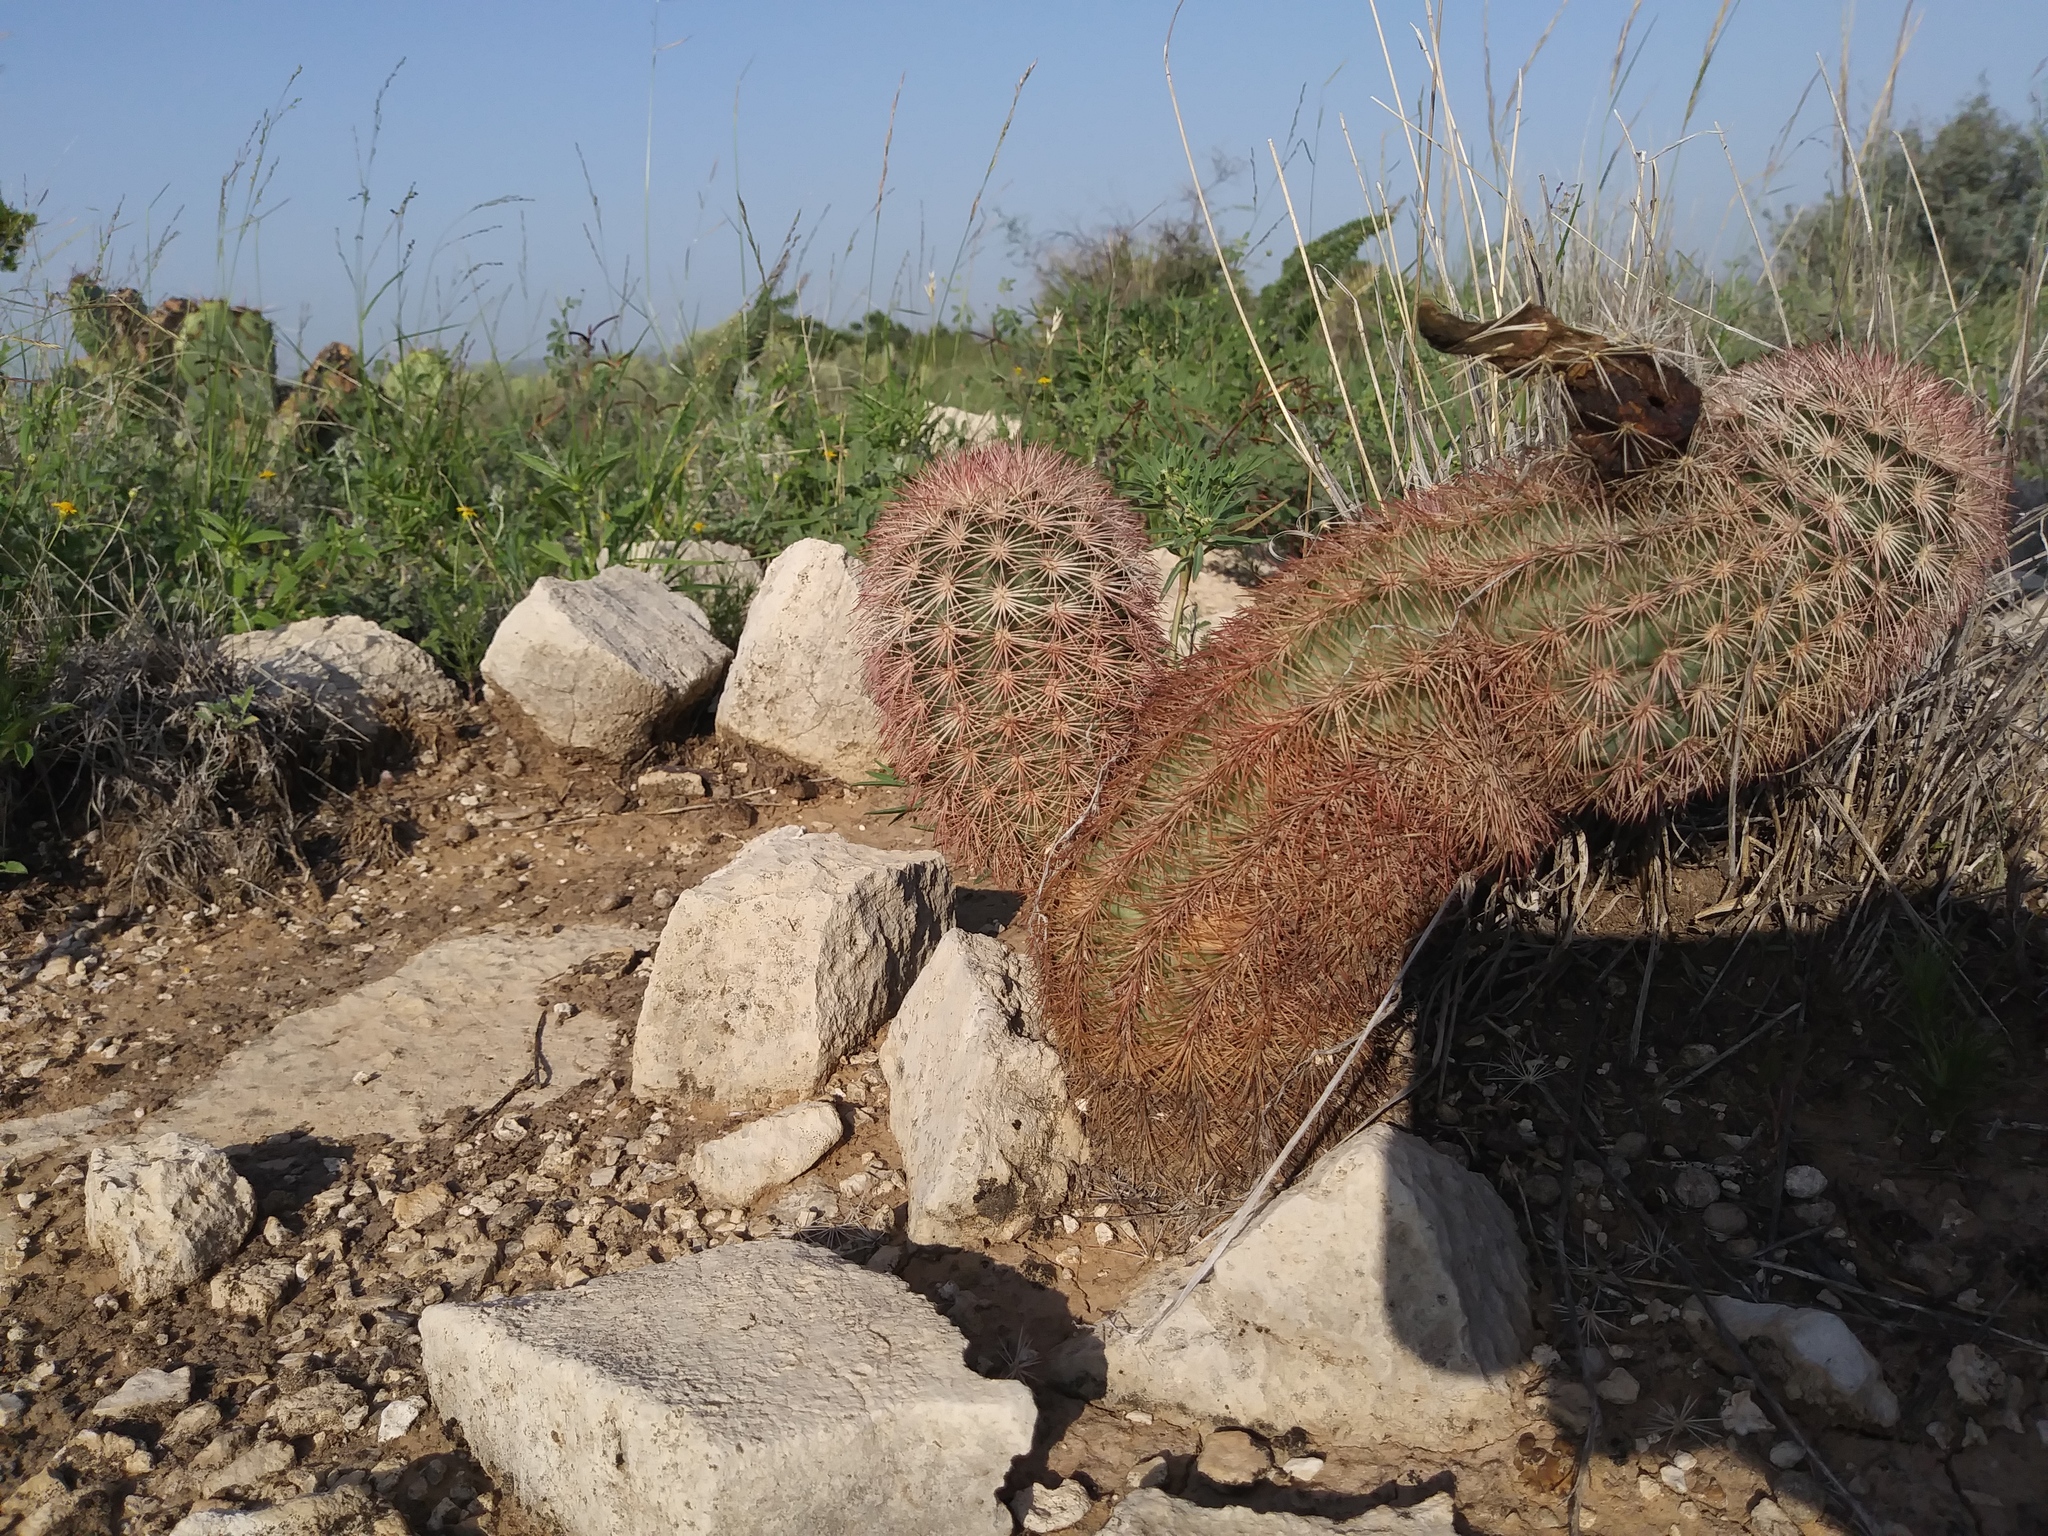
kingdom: Plantae
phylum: Tracheophyta
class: Magnoliopsida
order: Caryophyllales
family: Cactaceae
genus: Echinocereus
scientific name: Echinocereus dasyacanthus
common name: Spiny hedgehog cactus
